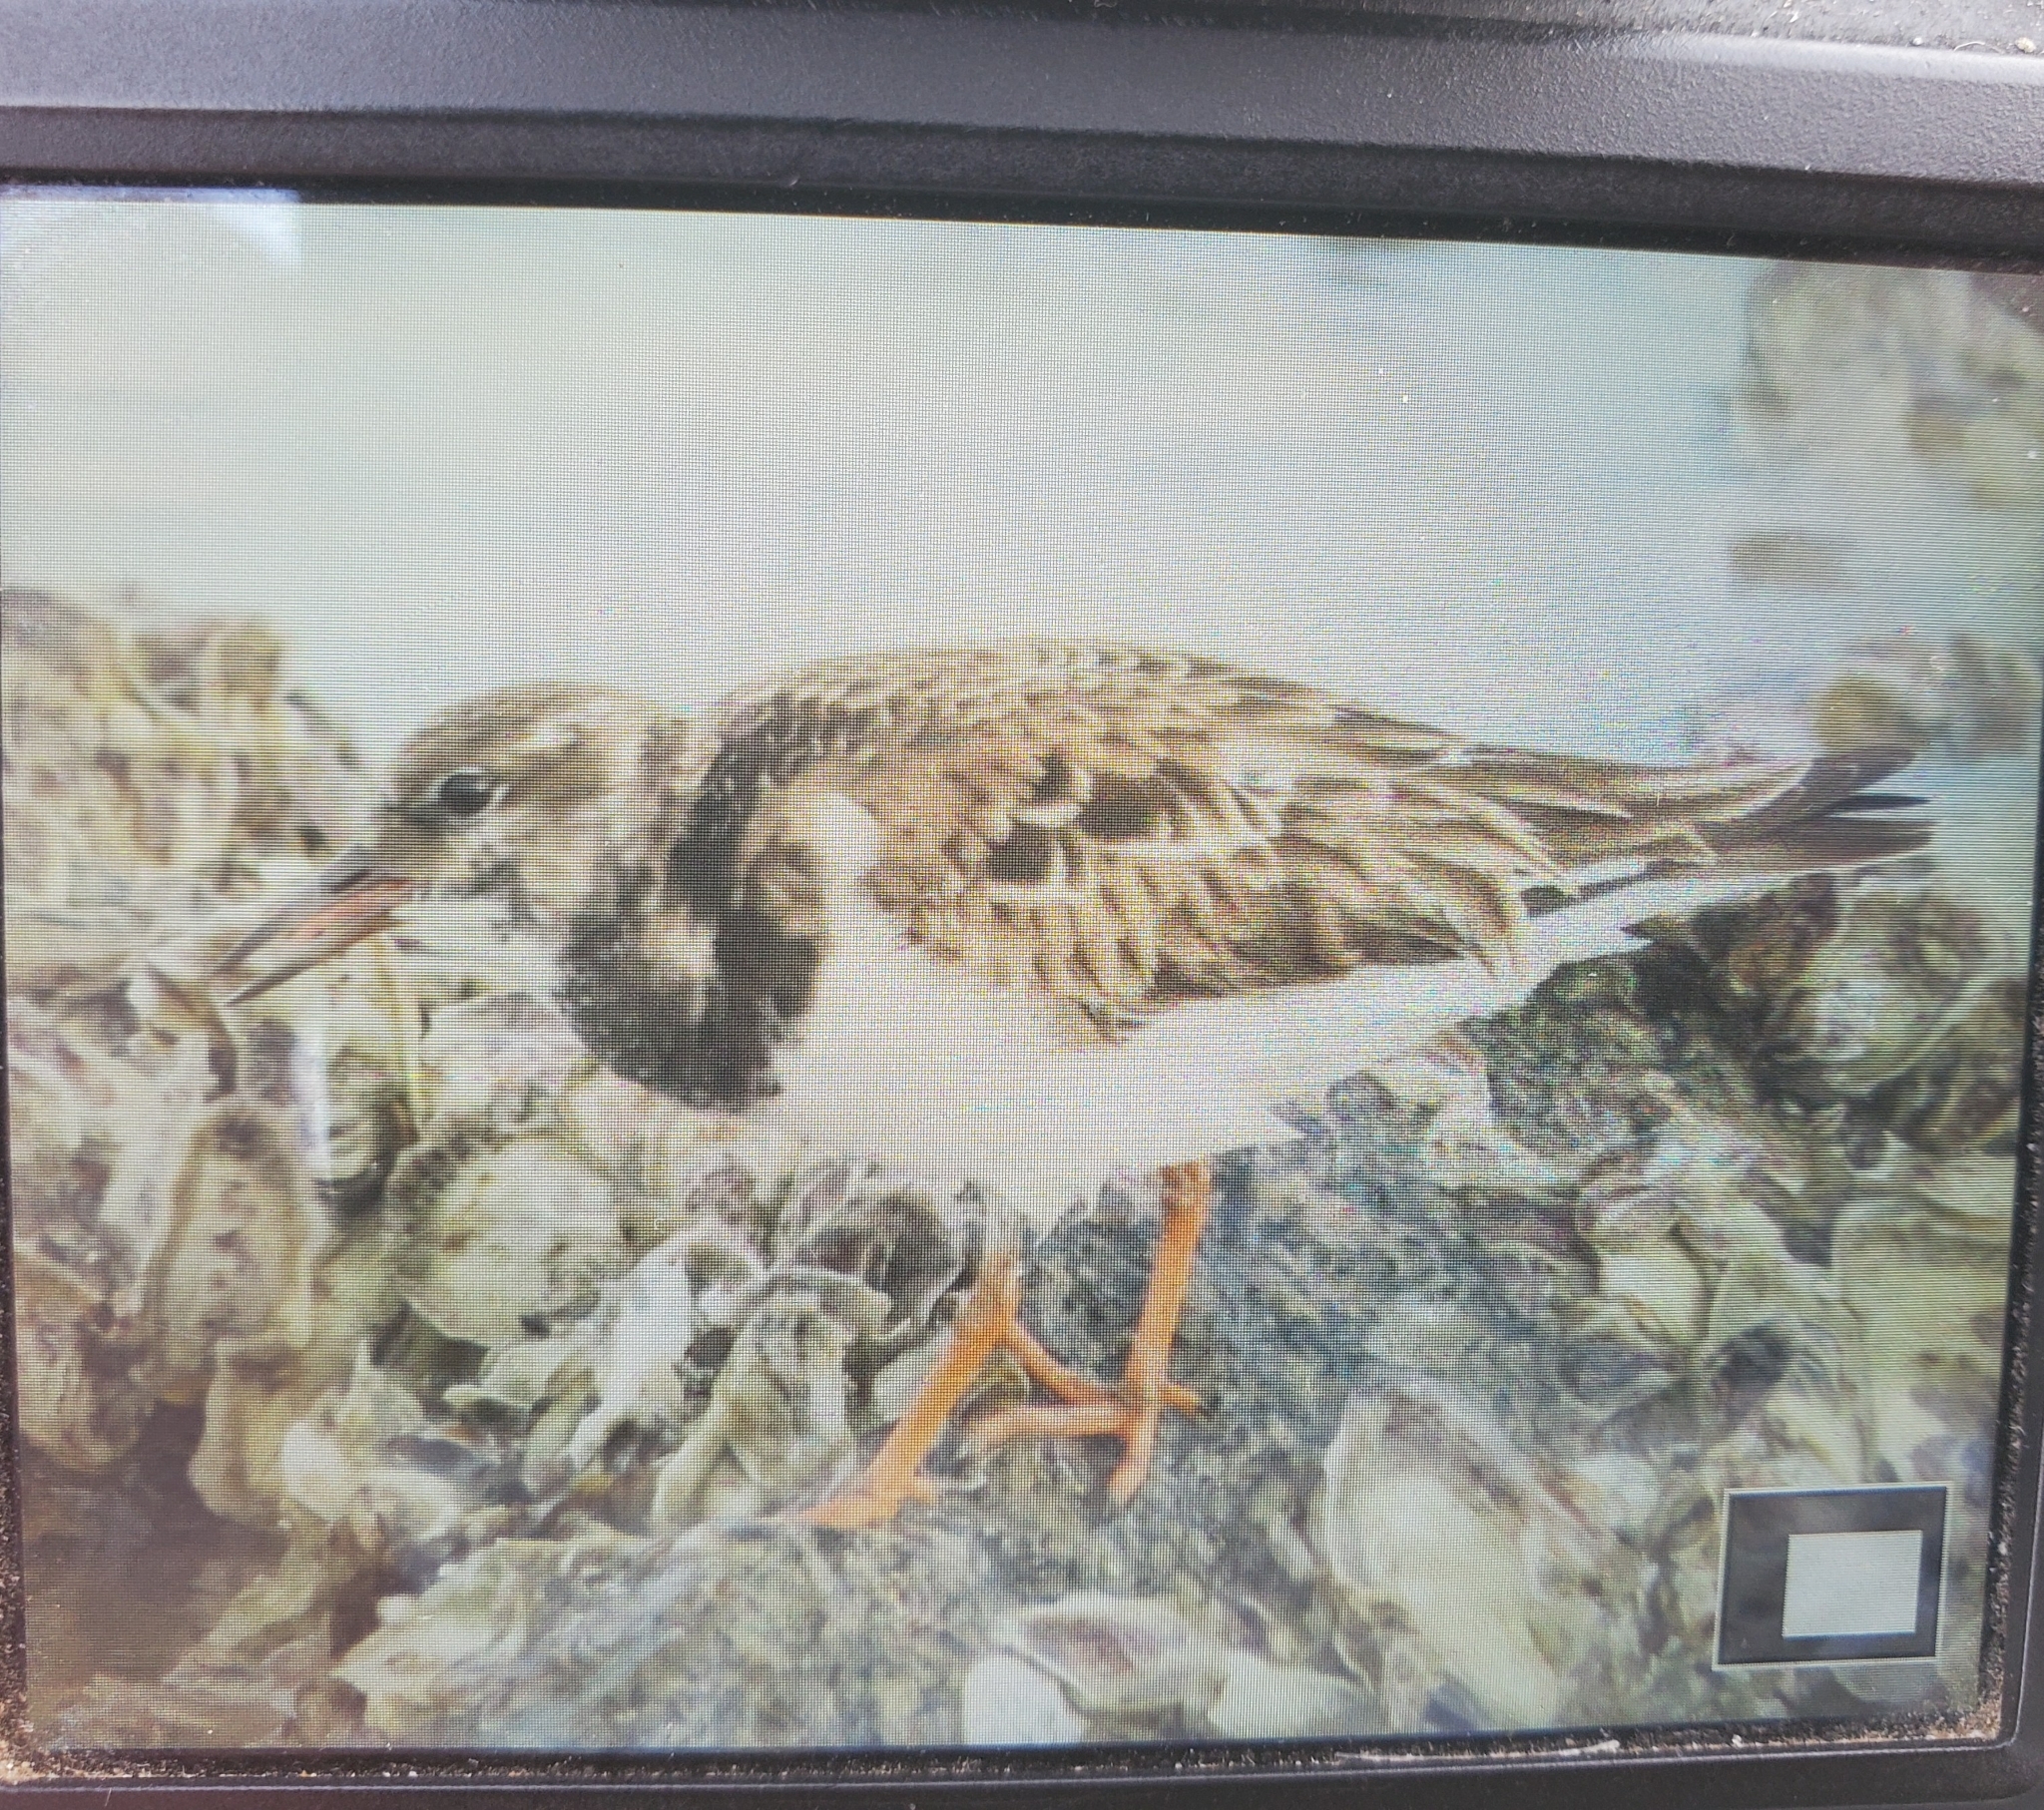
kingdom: Animalia
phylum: Chordata
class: Aves
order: Charadriiformes
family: Scolopacidae
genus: Arenaria
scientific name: Arenaria interpres
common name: Ruddy turnstone
